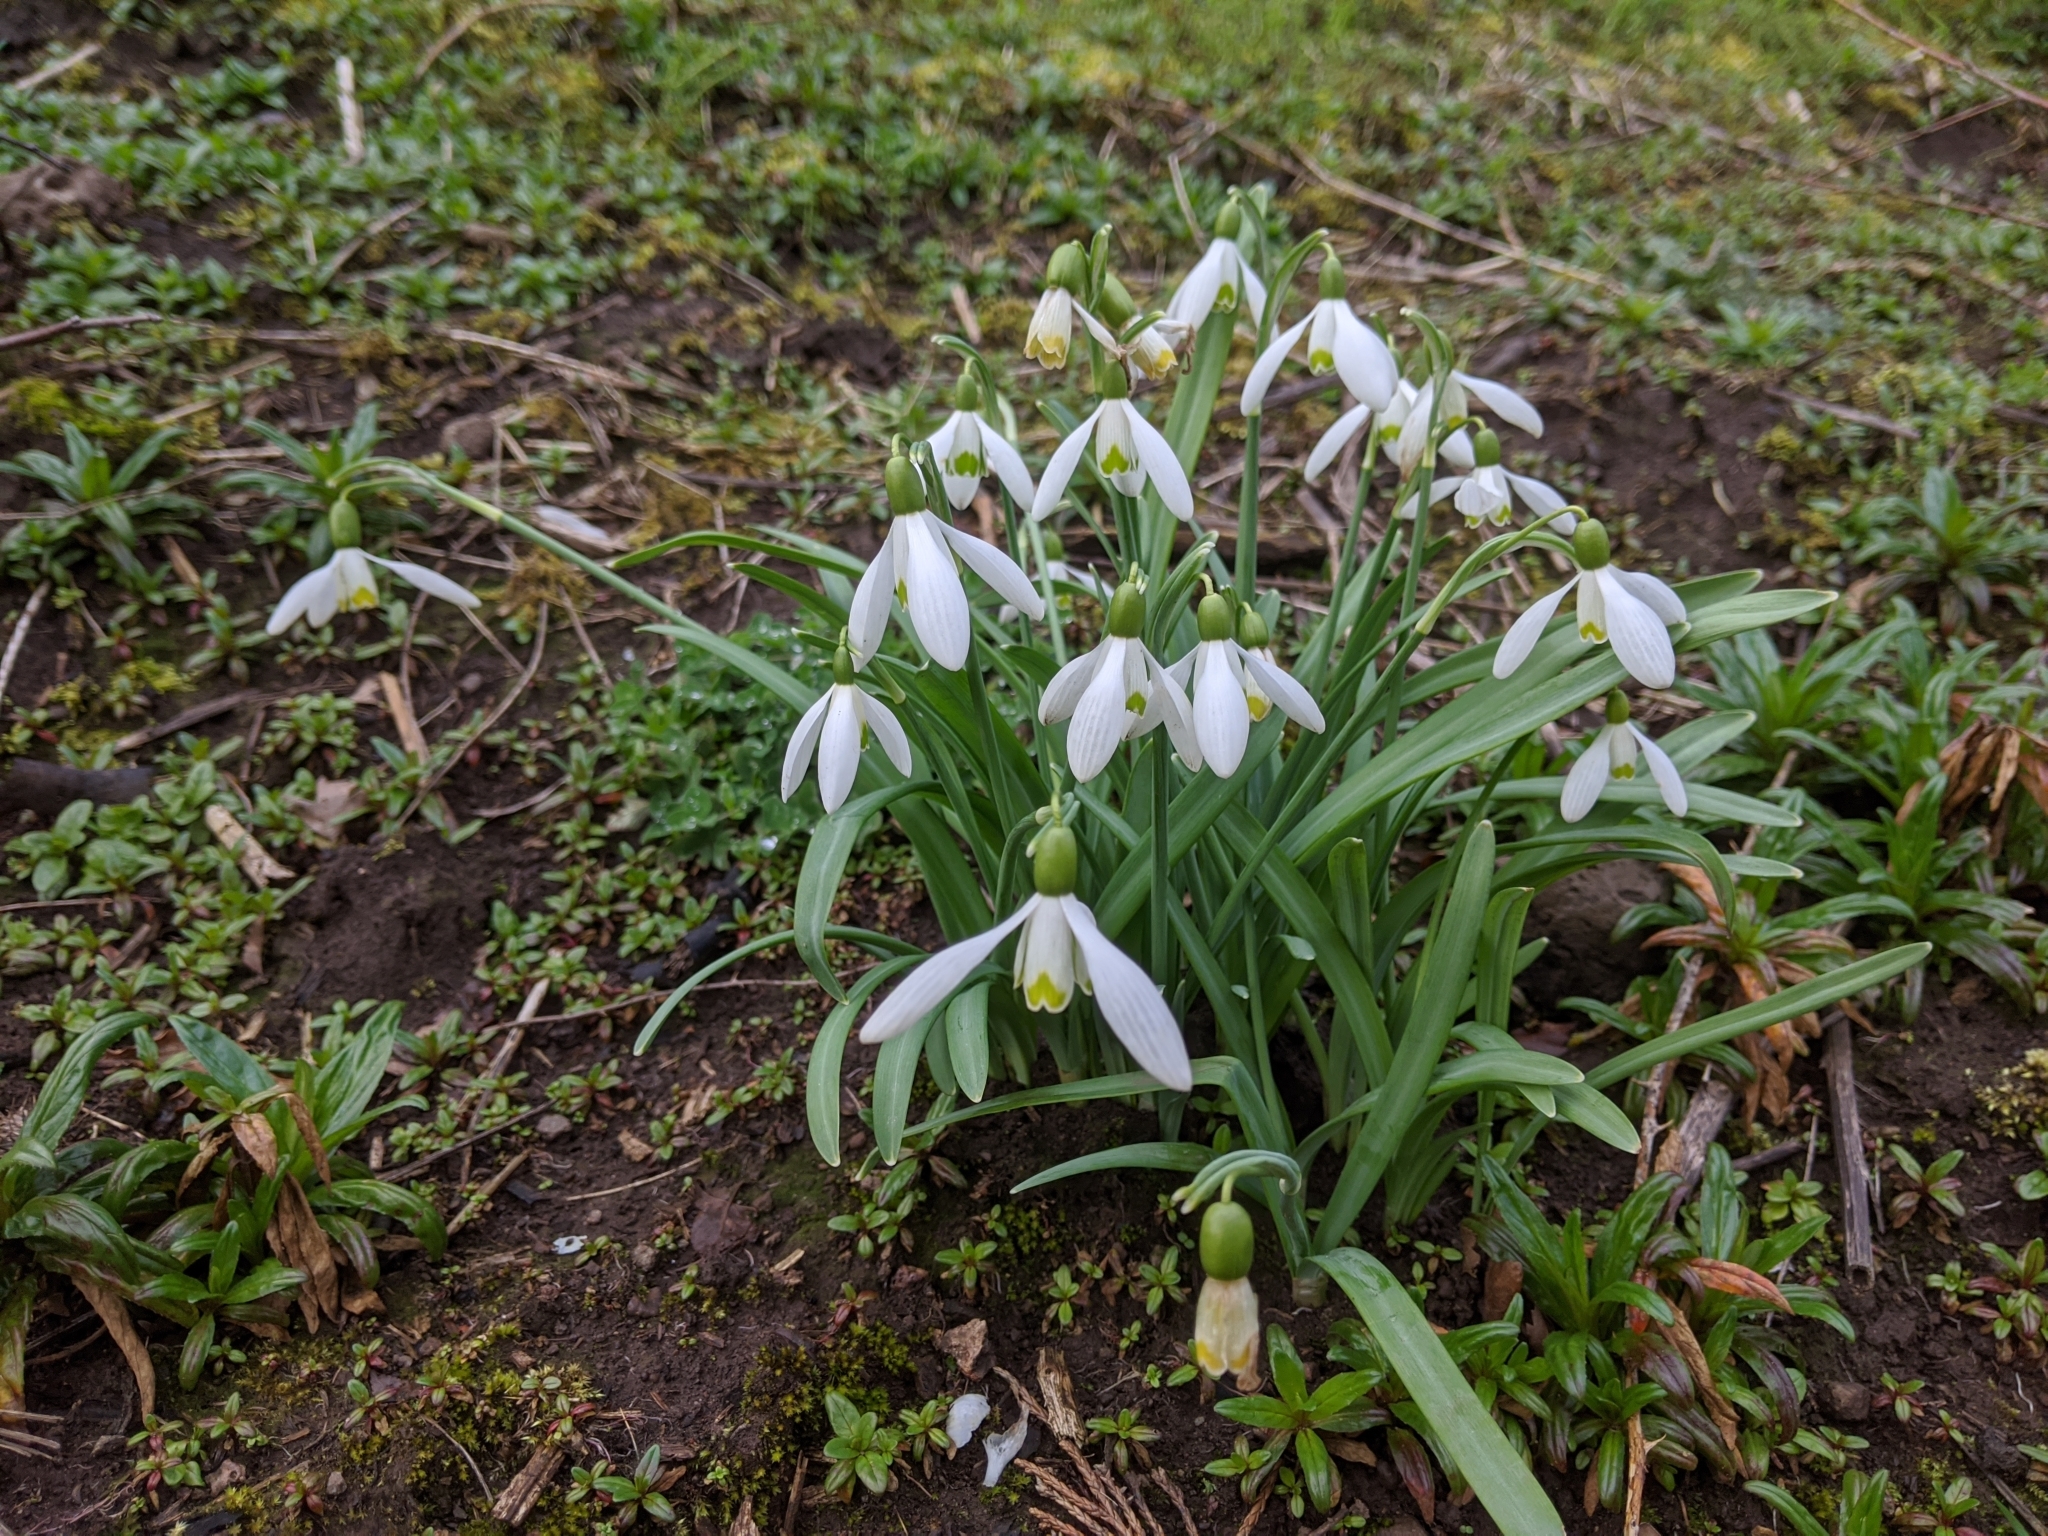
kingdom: Plantae
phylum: Tracheophyta
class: Liliopsida
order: Asparagales
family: Amaryllidaceae
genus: Galanthus
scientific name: Galanthus nivalis
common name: Snowdrop
